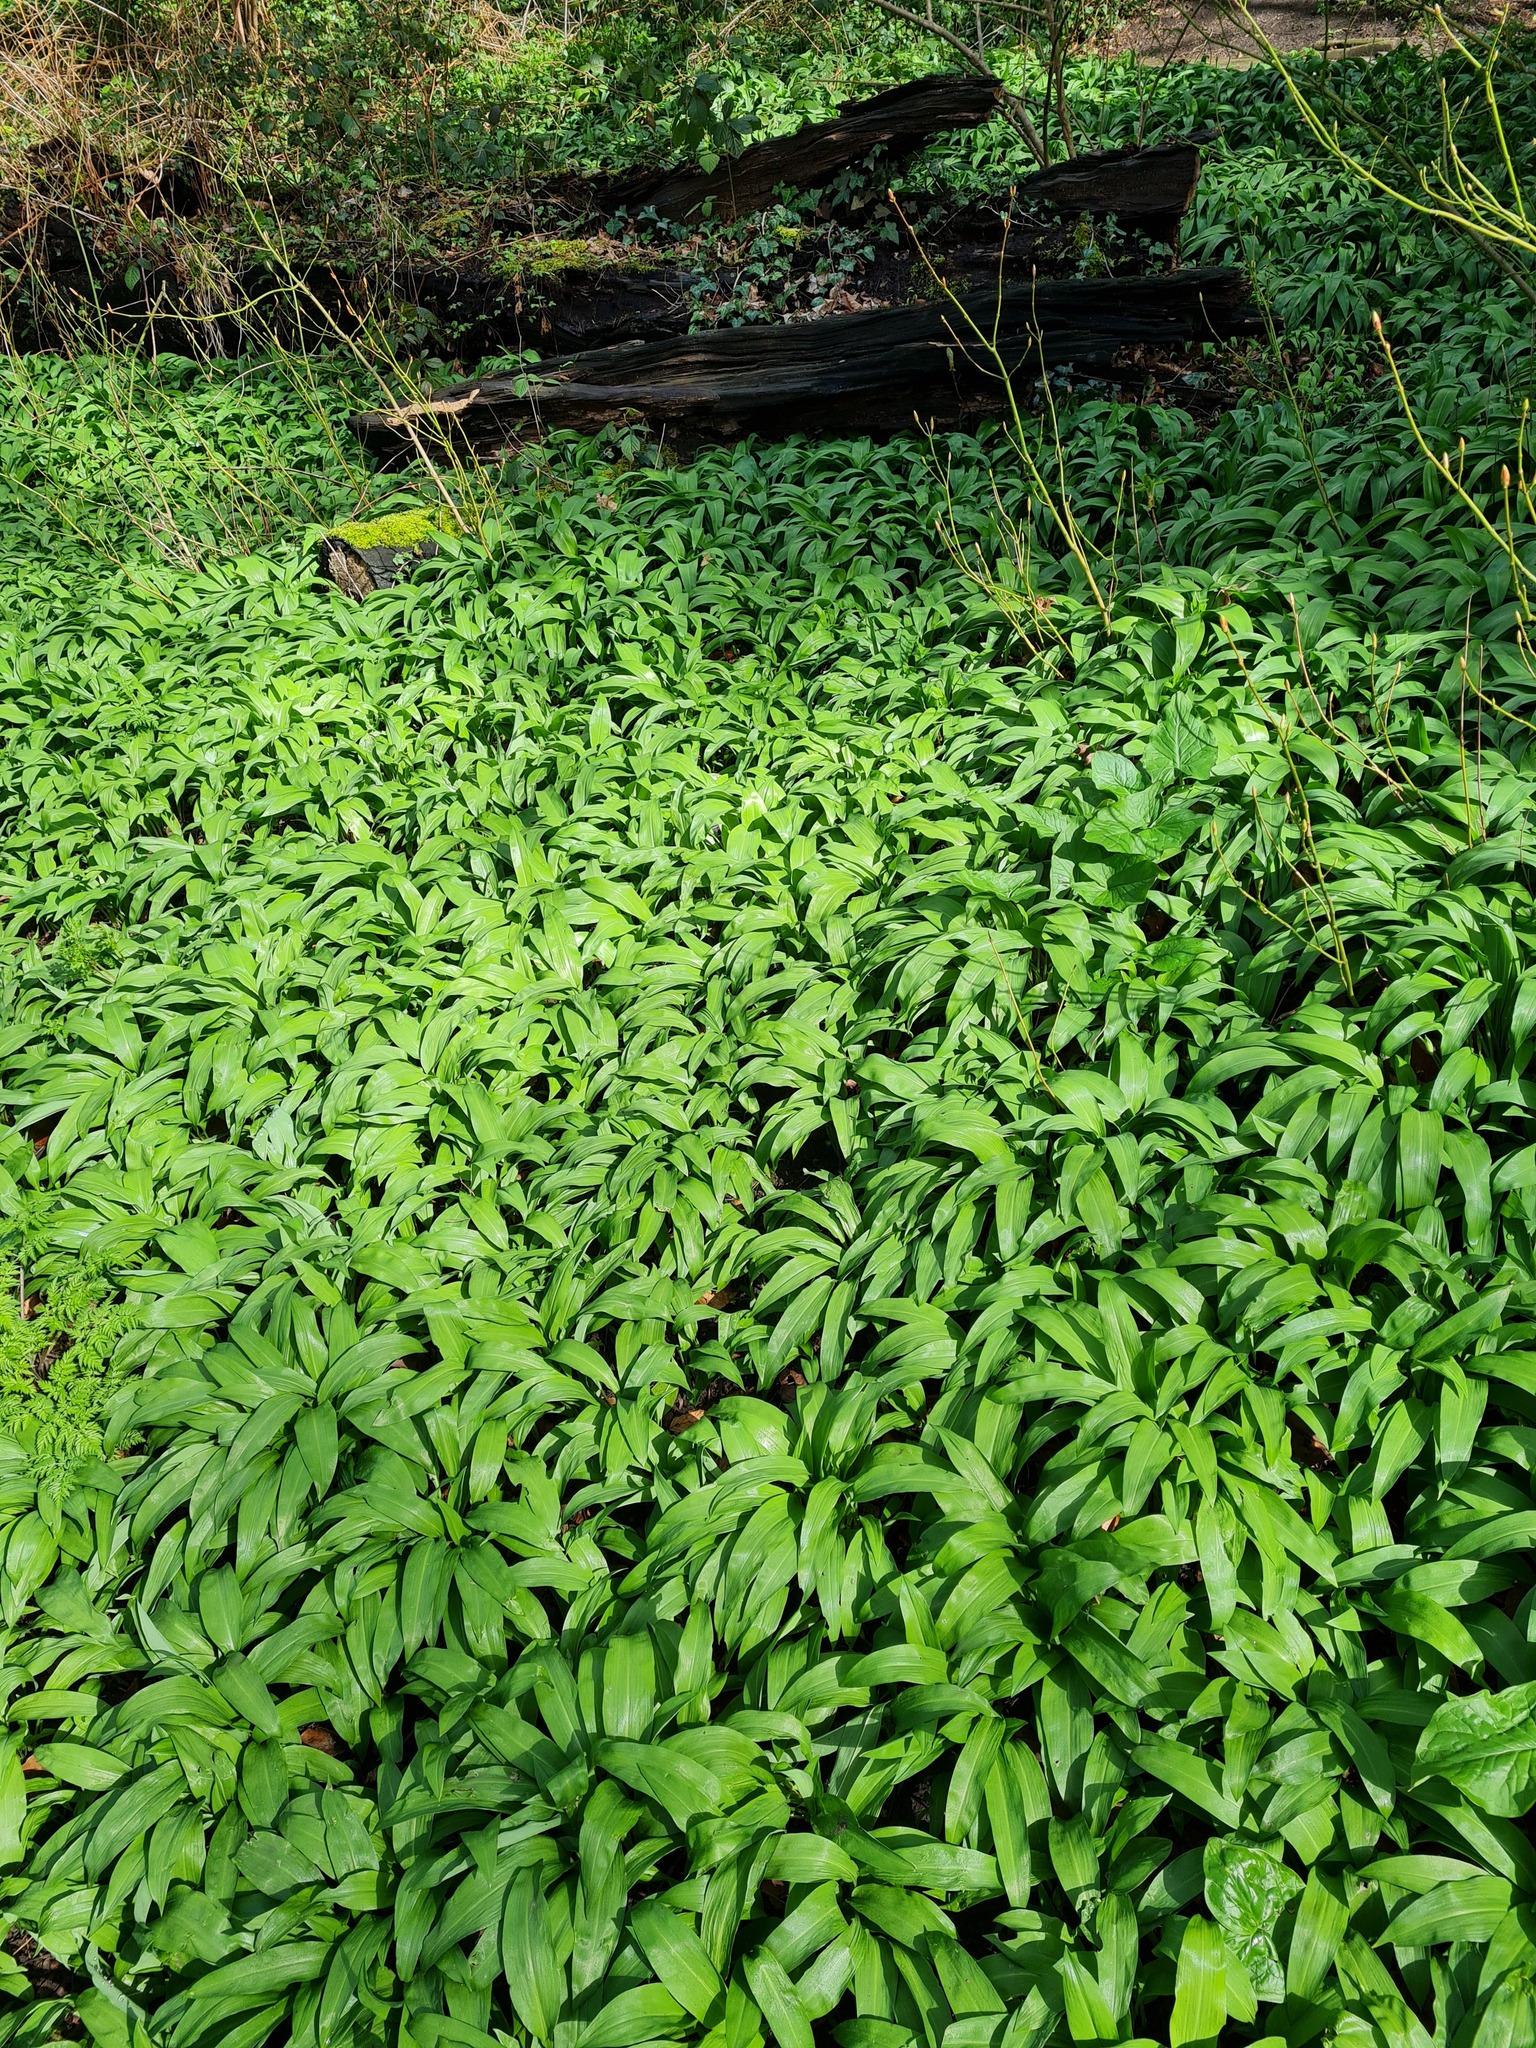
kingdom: Plantae
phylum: Tracheophyta
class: Liliopsida
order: Asparagales
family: Amaryllidaceae
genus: Allium
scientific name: Allium ursinum
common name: Ramsons
